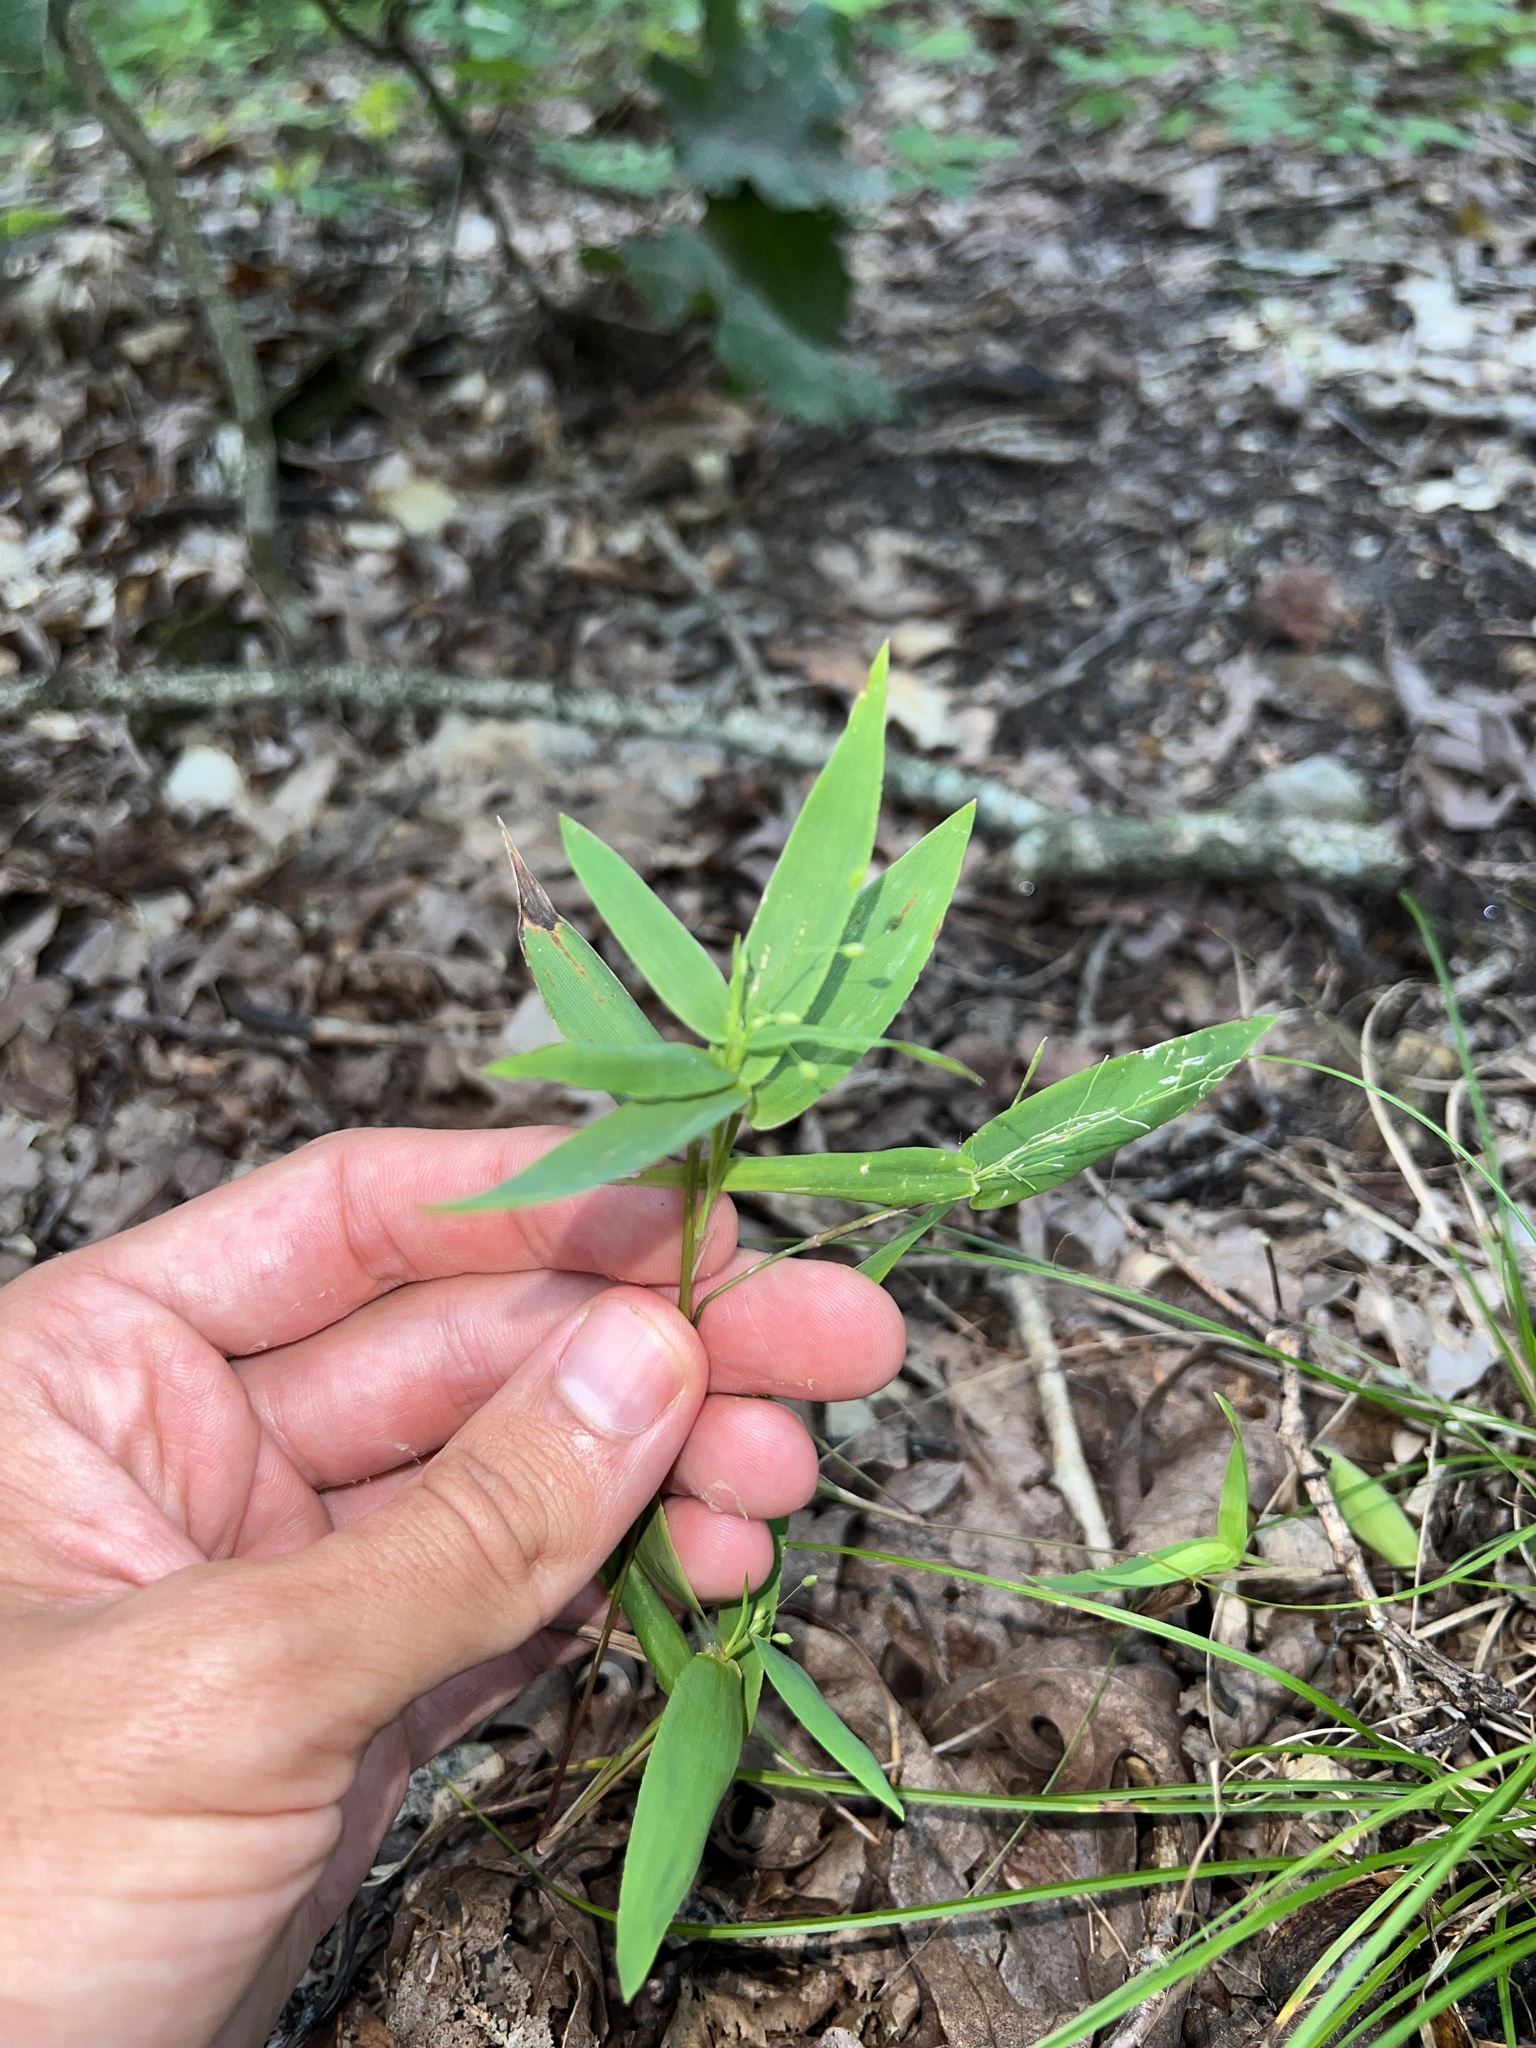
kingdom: Plantae
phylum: Tracheophyta
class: Liliopsida
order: Poales
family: Poaceae
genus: Dichanthelium
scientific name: Dichanthelium commutatum
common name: Variable witchgrass
